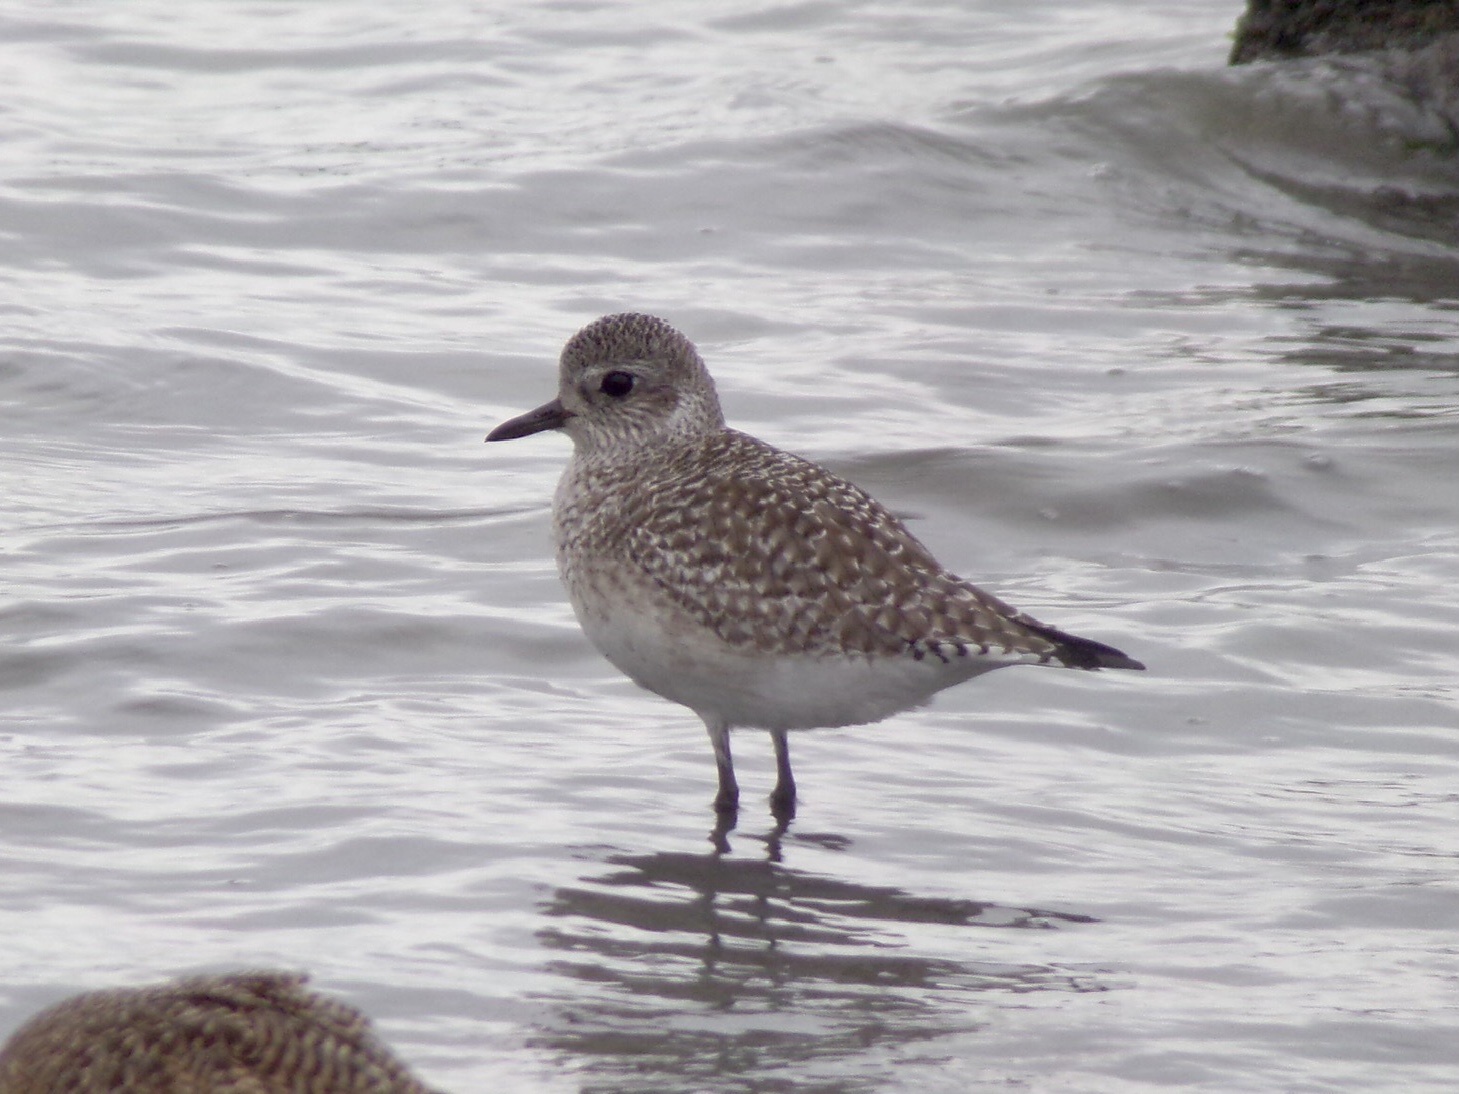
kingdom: Animalia
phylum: Chordata
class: Aves
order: Charadriiformes
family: Charadriidae
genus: Pluvialis
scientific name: Pluvialis squatarola
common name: Grey plover
